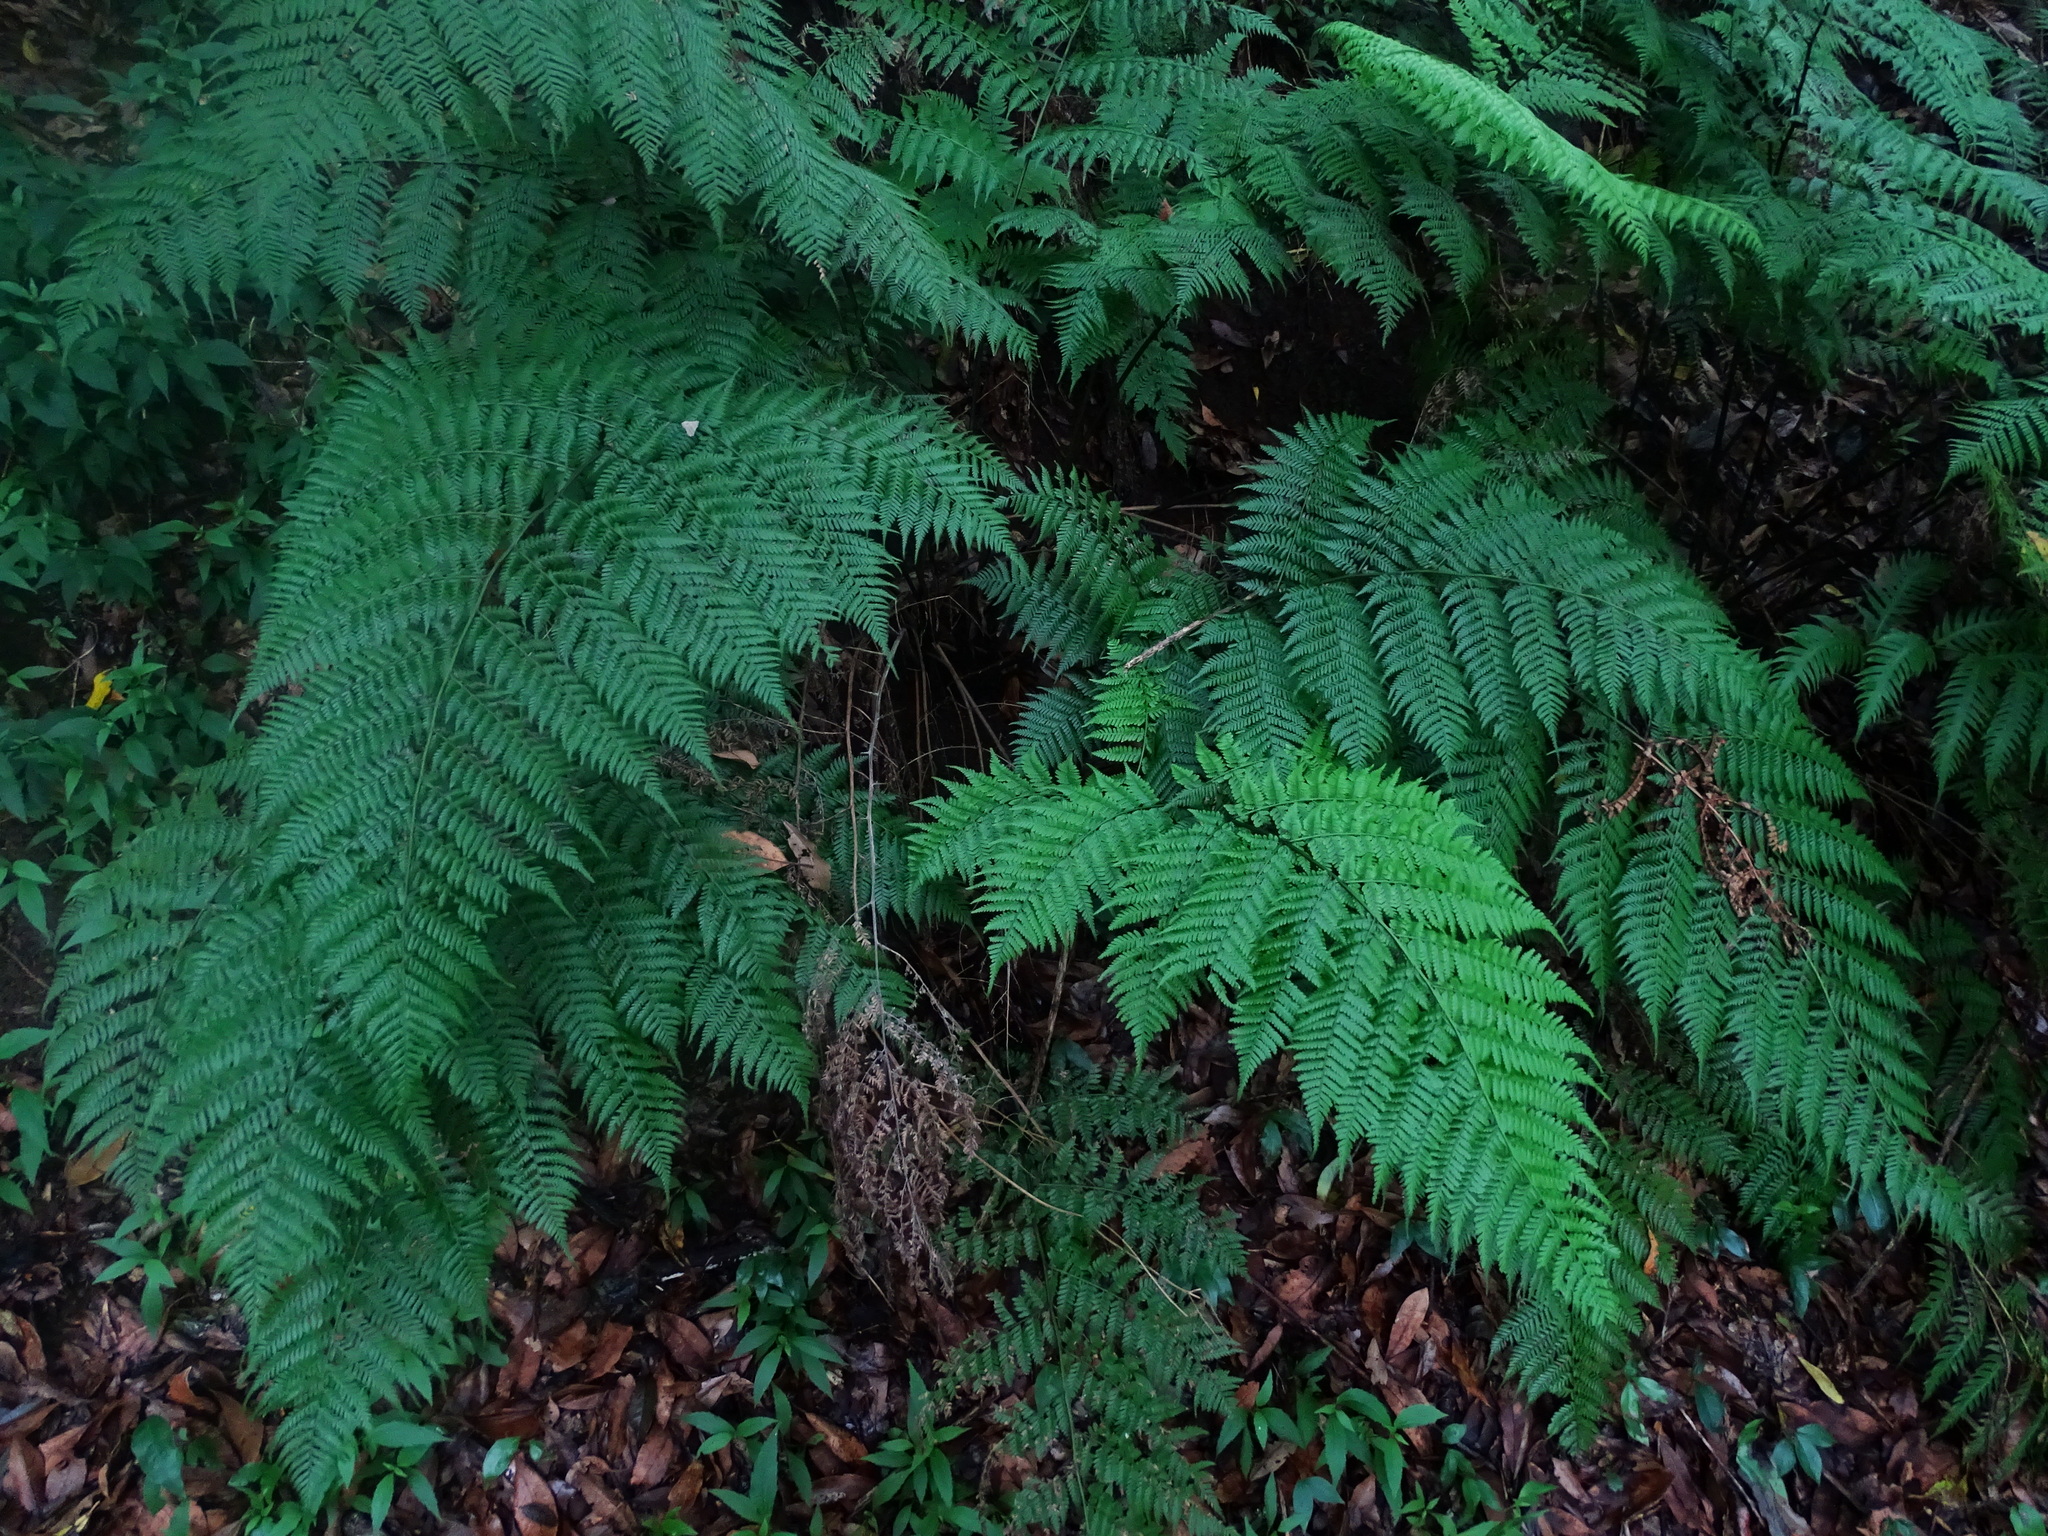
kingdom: Plantae
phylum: Tracheophyta
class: Polypodiopsida
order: Polypodiales
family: Athyriaceae
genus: Diplazium
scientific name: Diplazium caudatum
